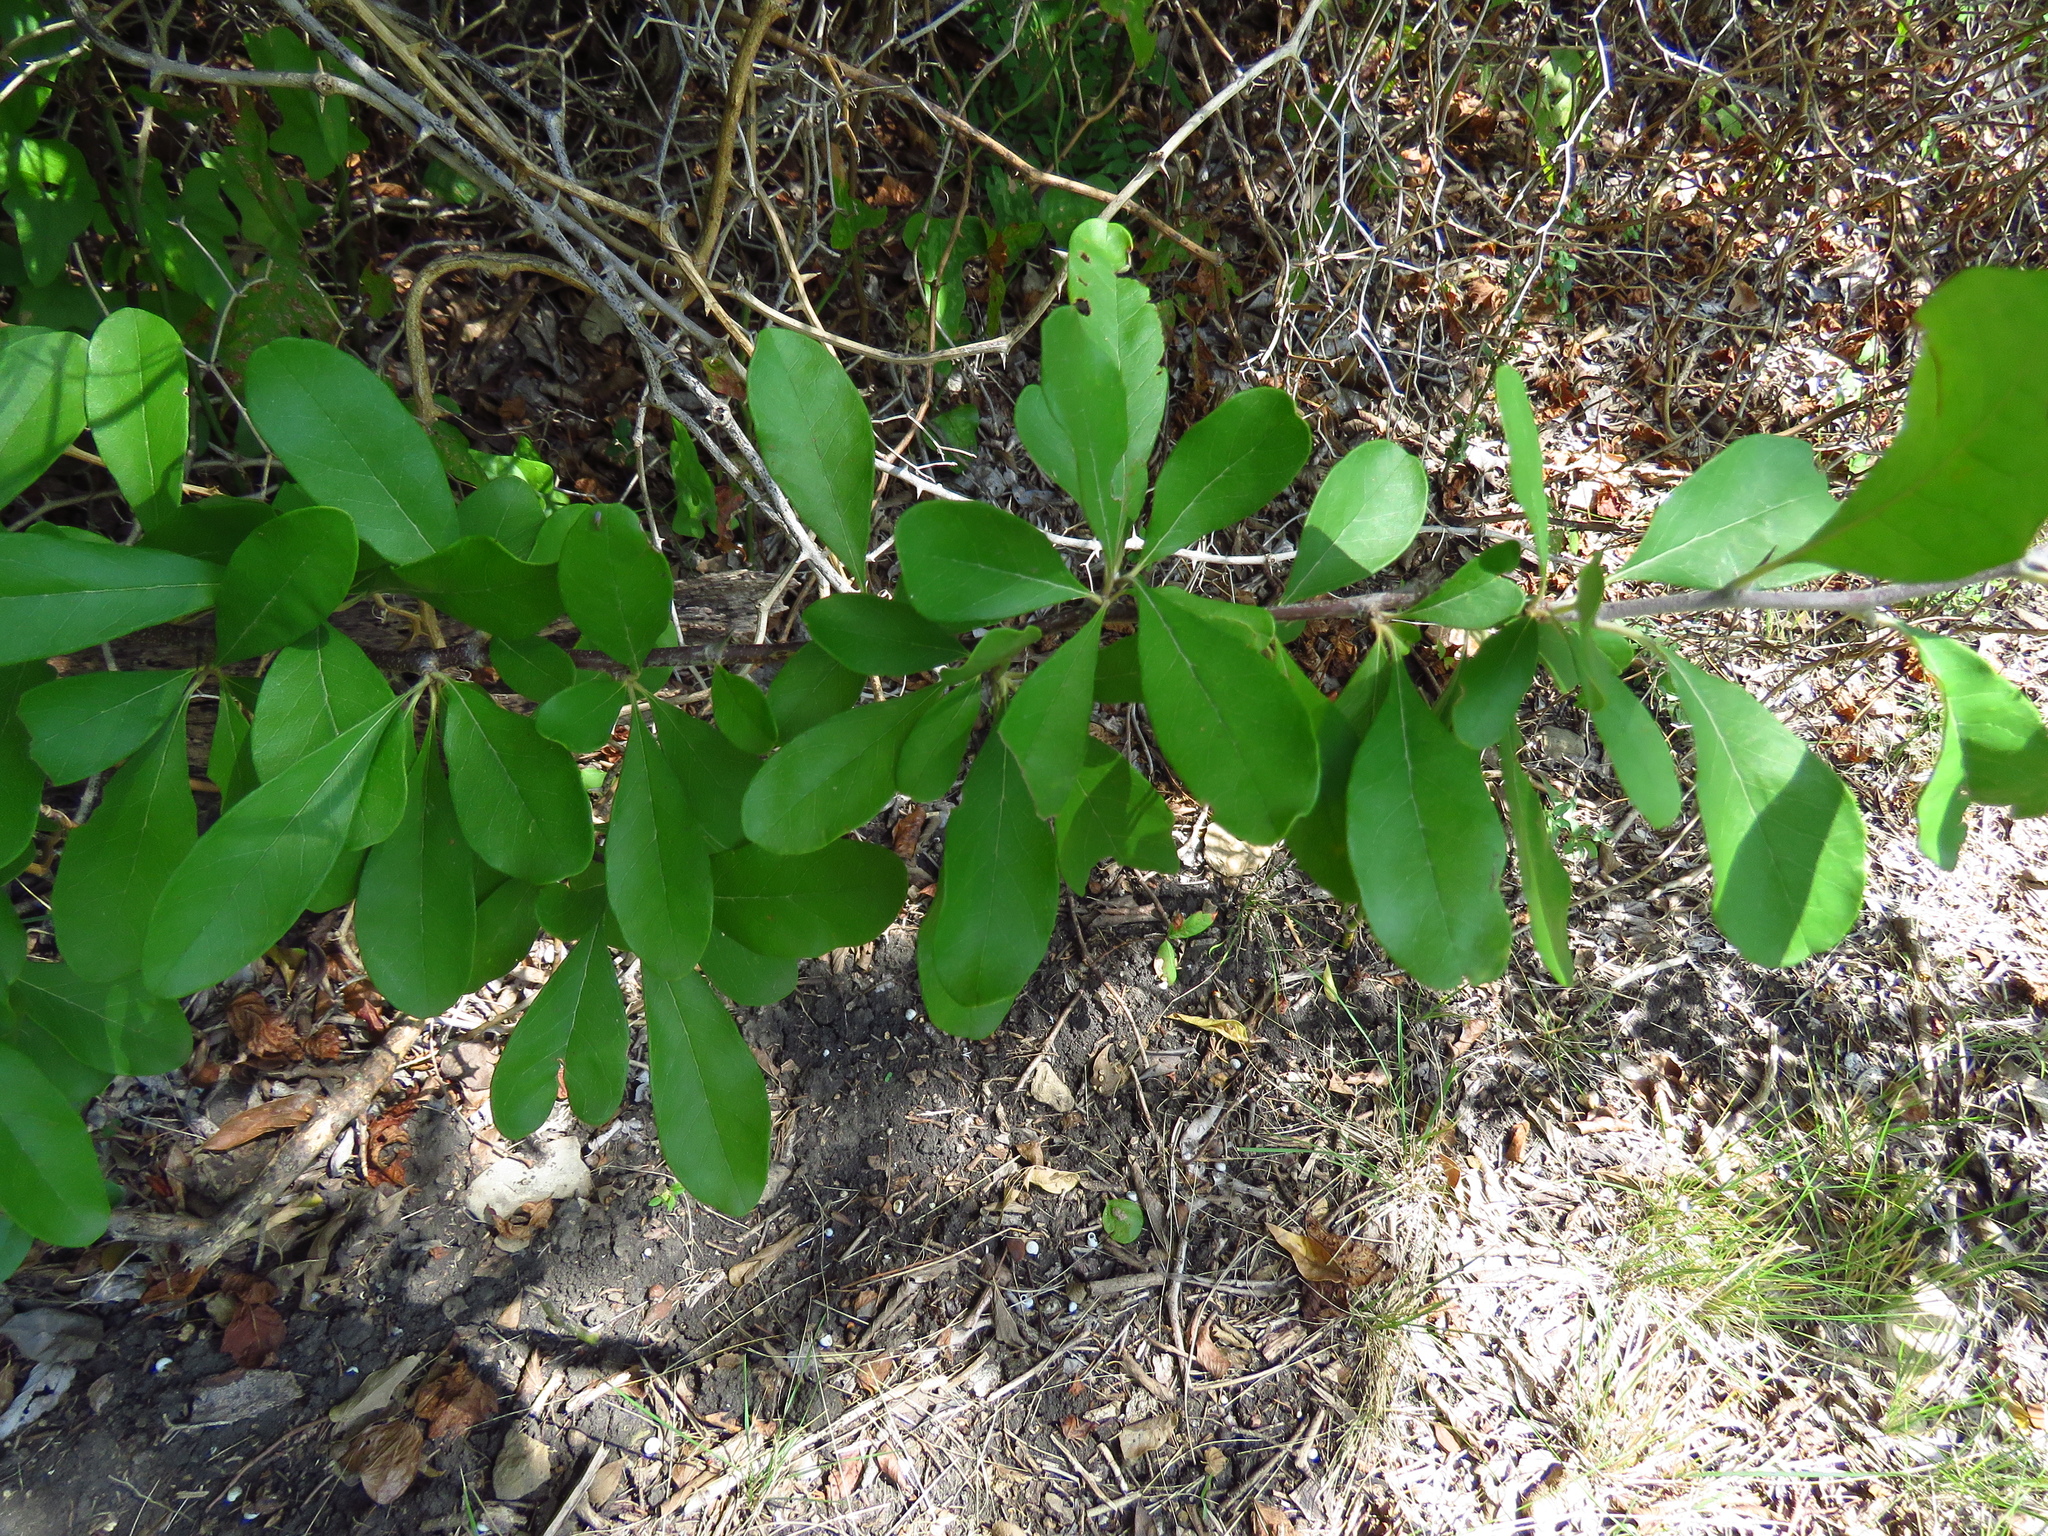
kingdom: Plantae
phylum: Tracheophyta
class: Magnoliopsida
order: Ericales
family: Sapotaceae
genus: Sideroxylon
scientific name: Sideroxylon lanuginosum
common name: Chittamwood
